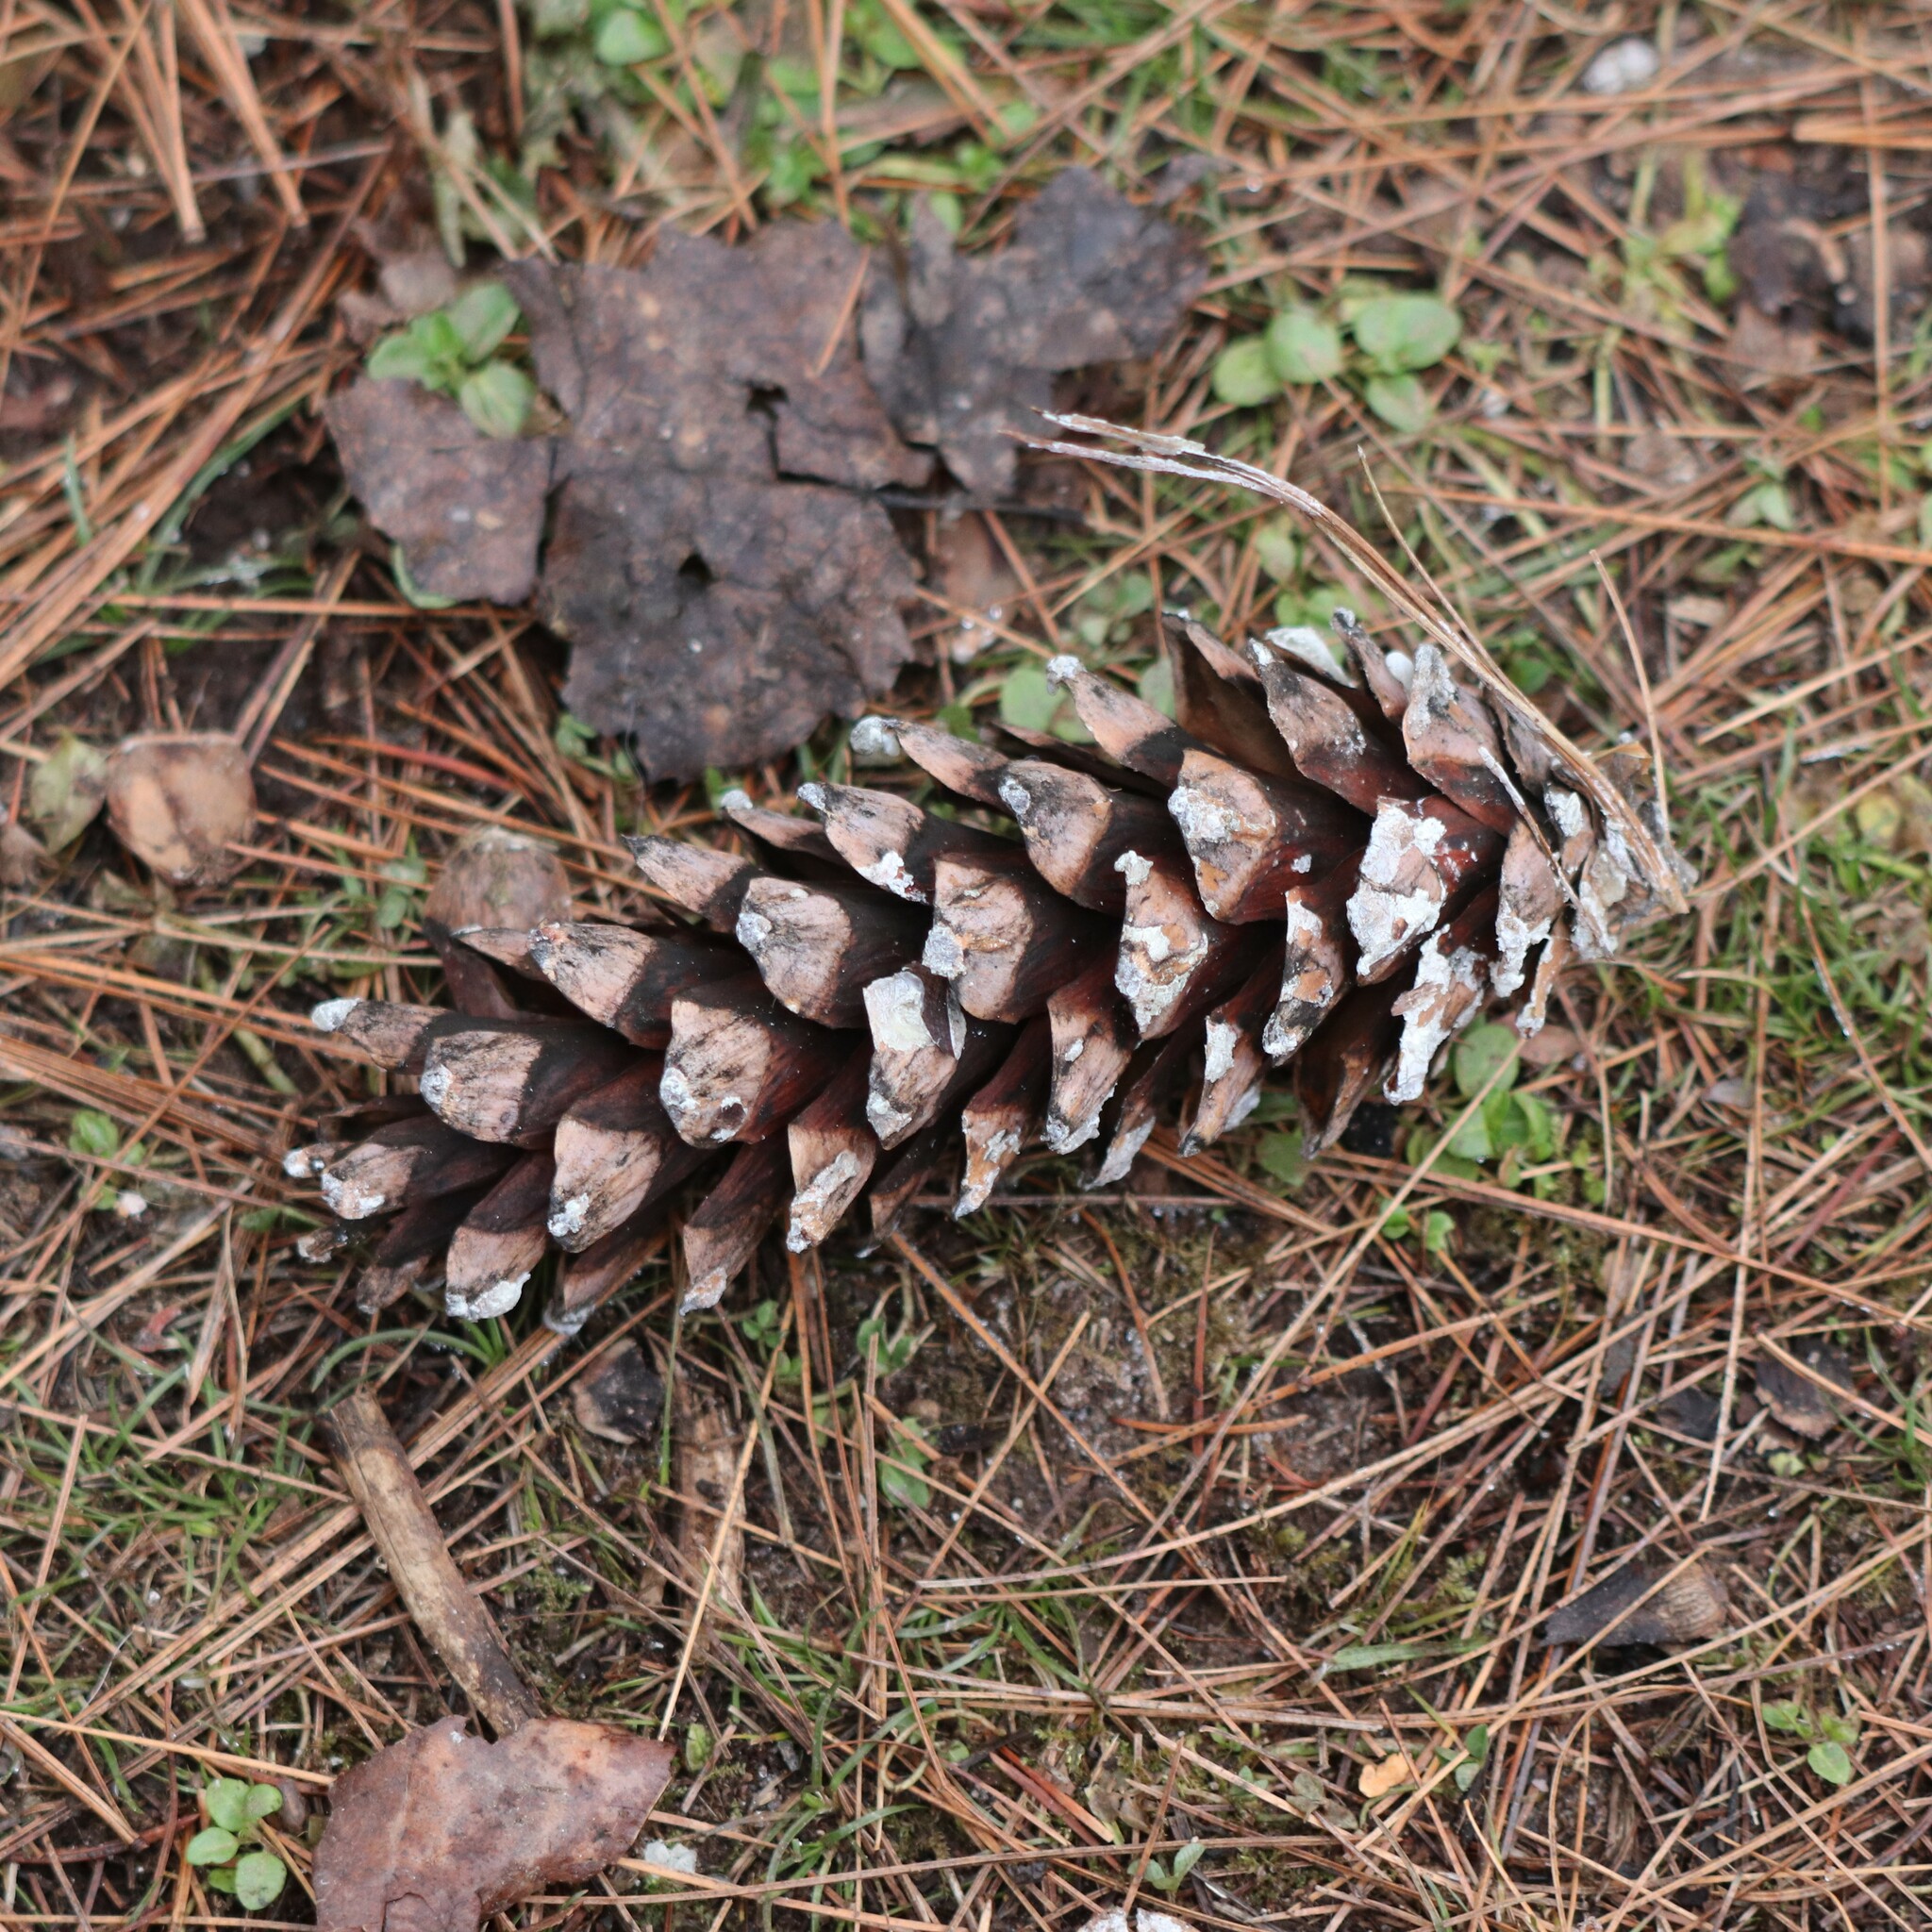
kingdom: Plantae
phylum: Tracheophyta
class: Pinopsida
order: Pinales
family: Pinaceae
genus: Pinus
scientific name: Pinus strobus
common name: Weymouth pine
